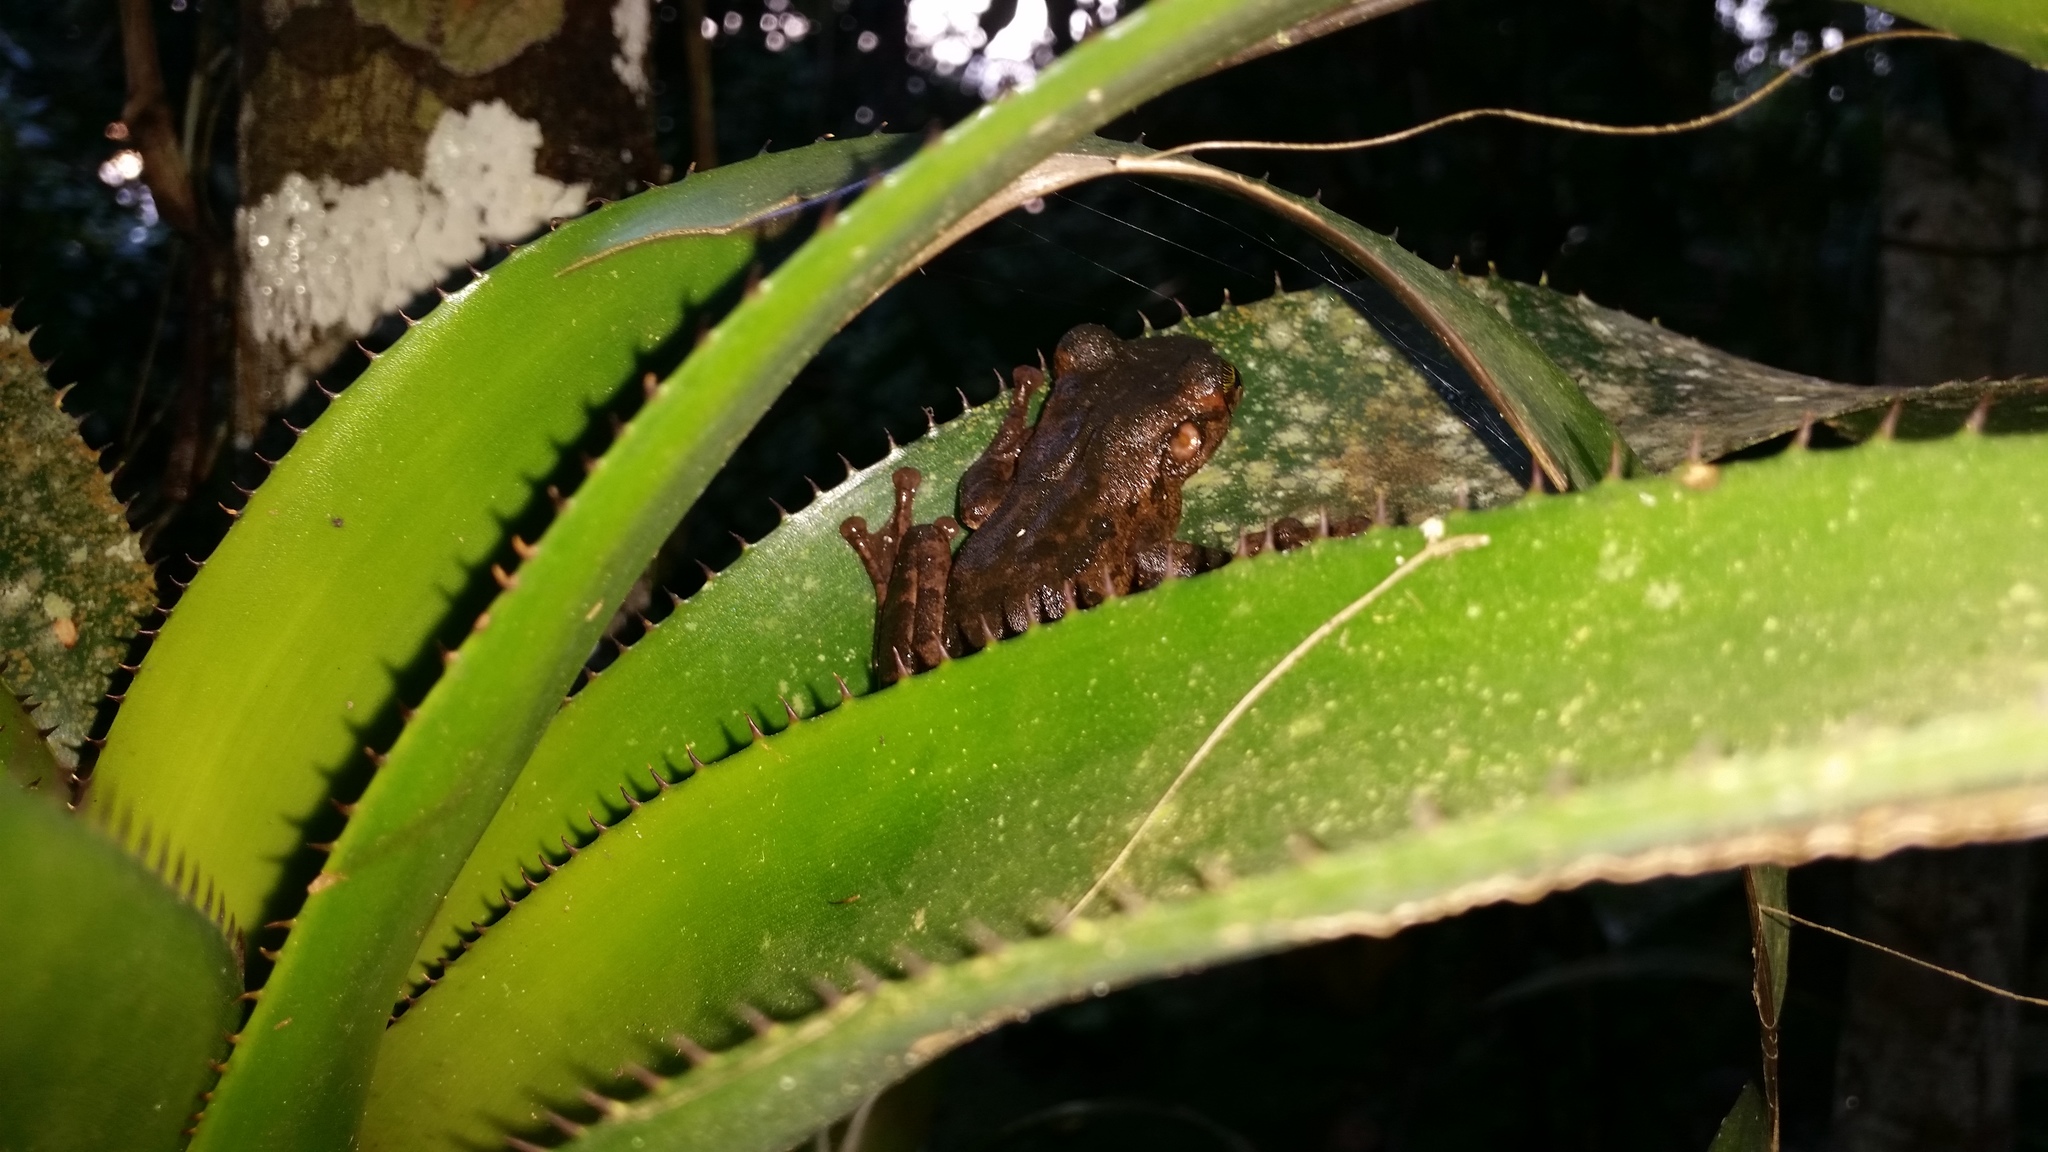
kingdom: Animalia
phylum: Chordata
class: Amphibia
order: Anura
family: Hylidae
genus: Osteocephalus
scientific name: Osteocephalus taurinus
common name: Manaus slender-legged treefrog
